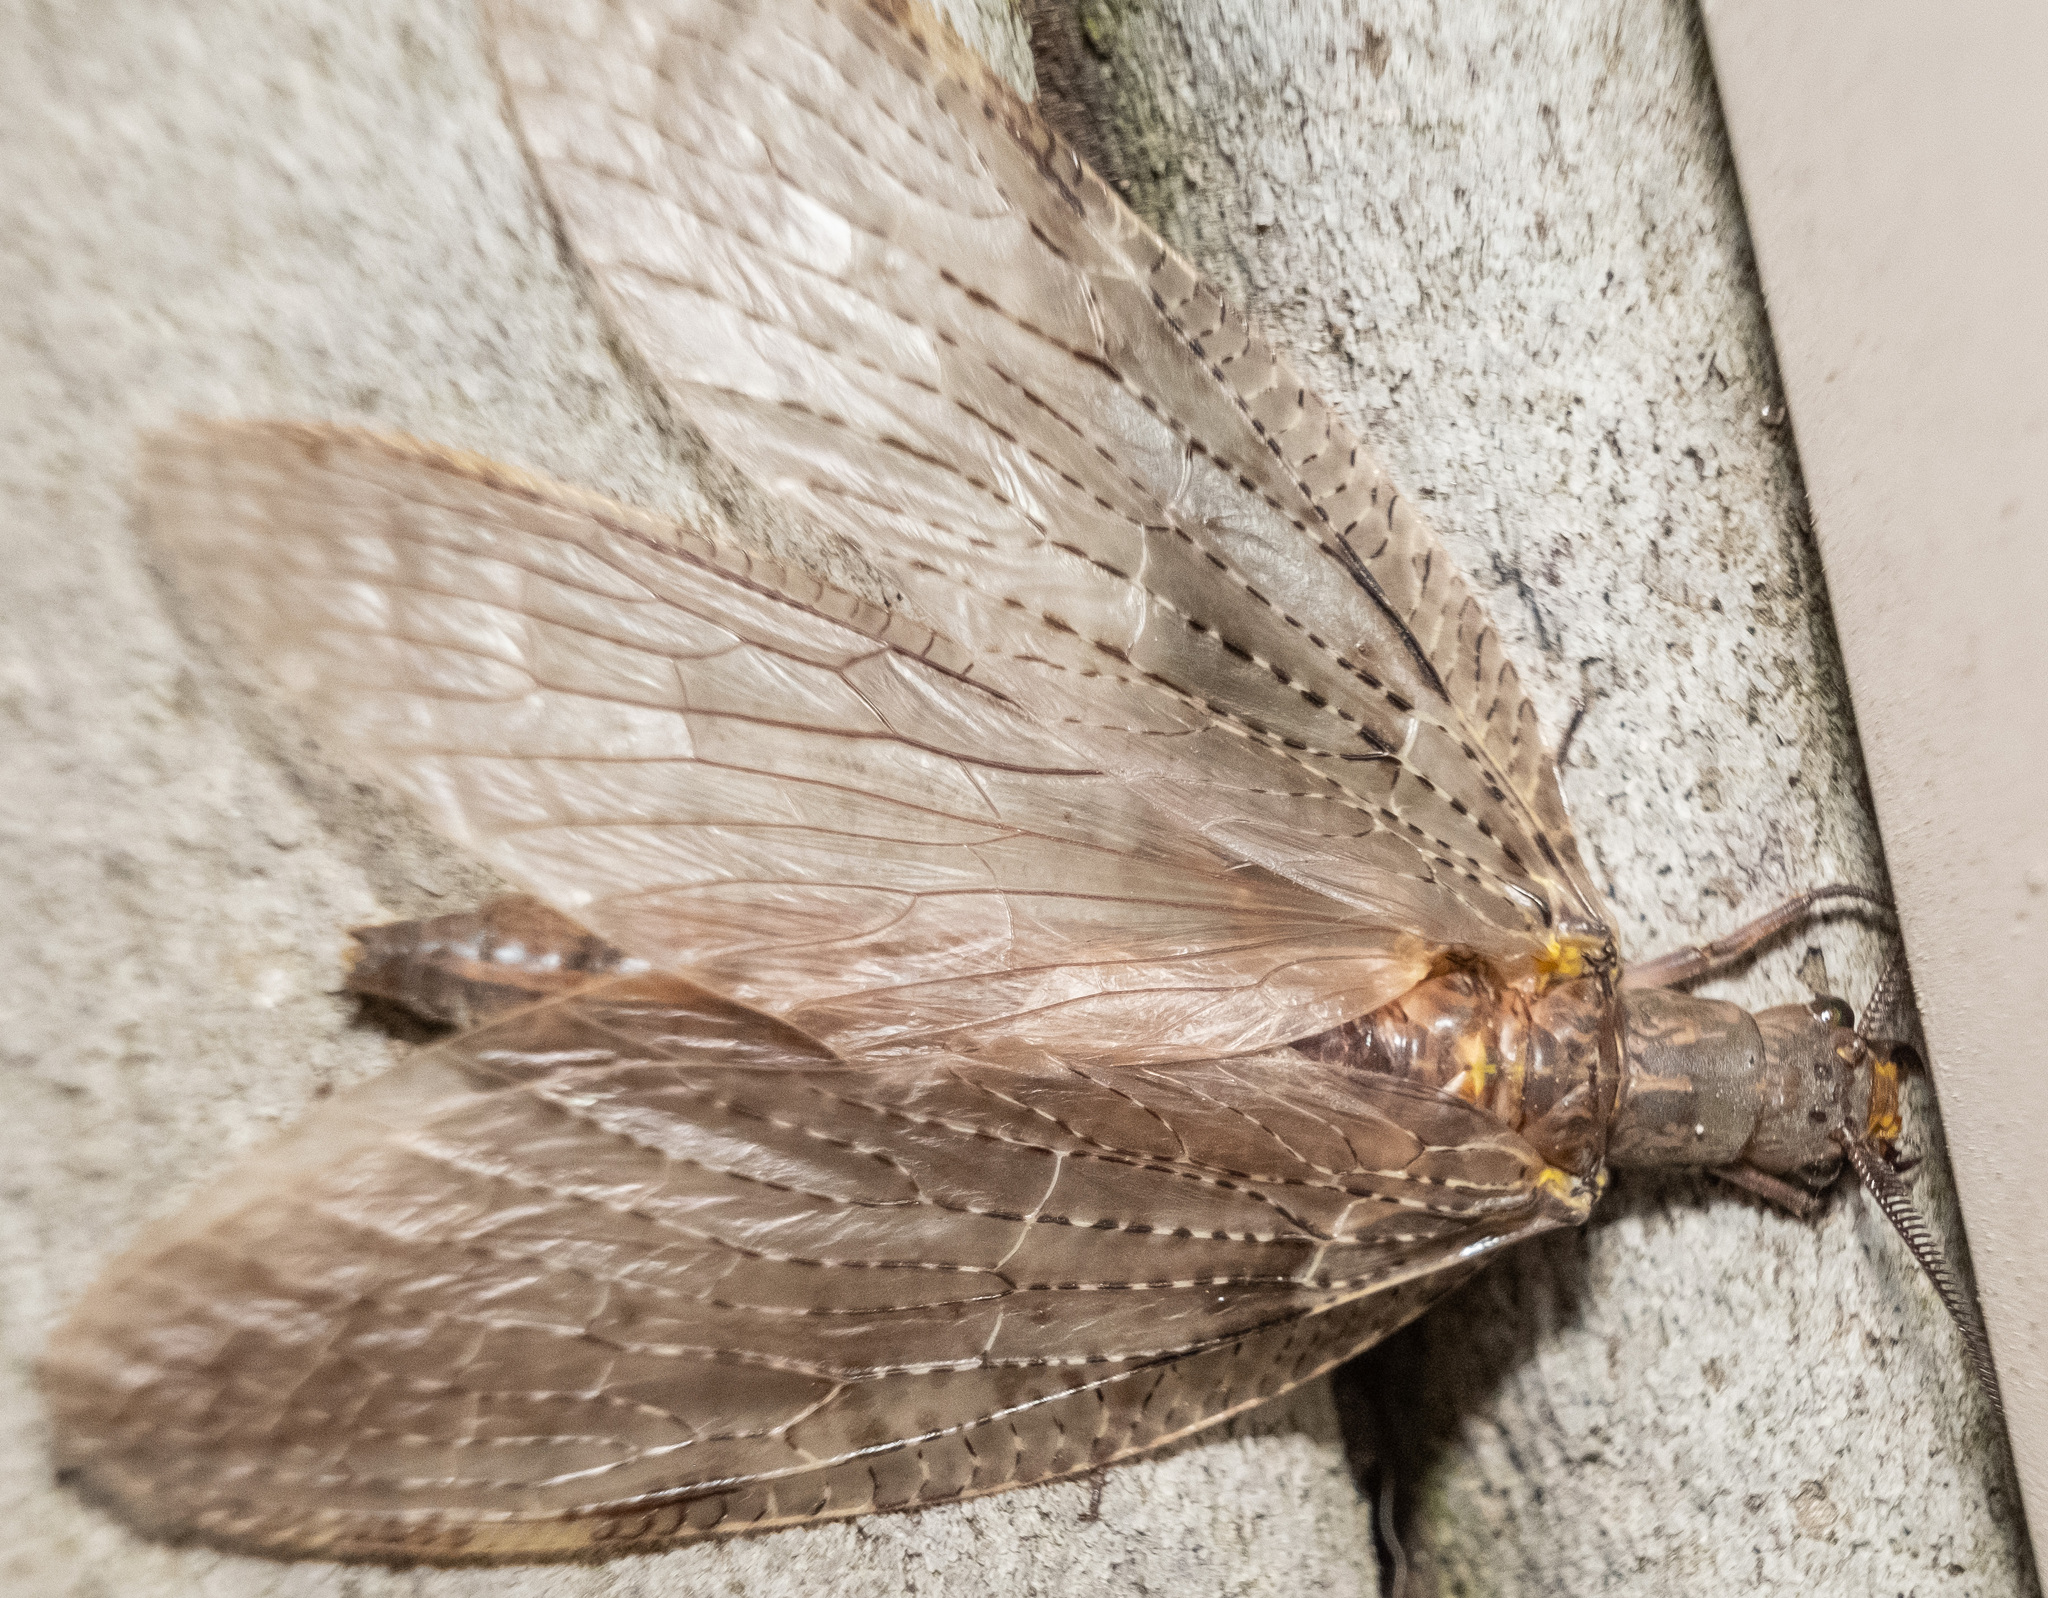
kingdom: Animalia
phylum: Arthropoda
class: Insecta
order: Megaloptera
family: Corydalidae
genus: Chauliodes
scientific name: Chauliodes pectinicornis
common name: Summer fishfly
